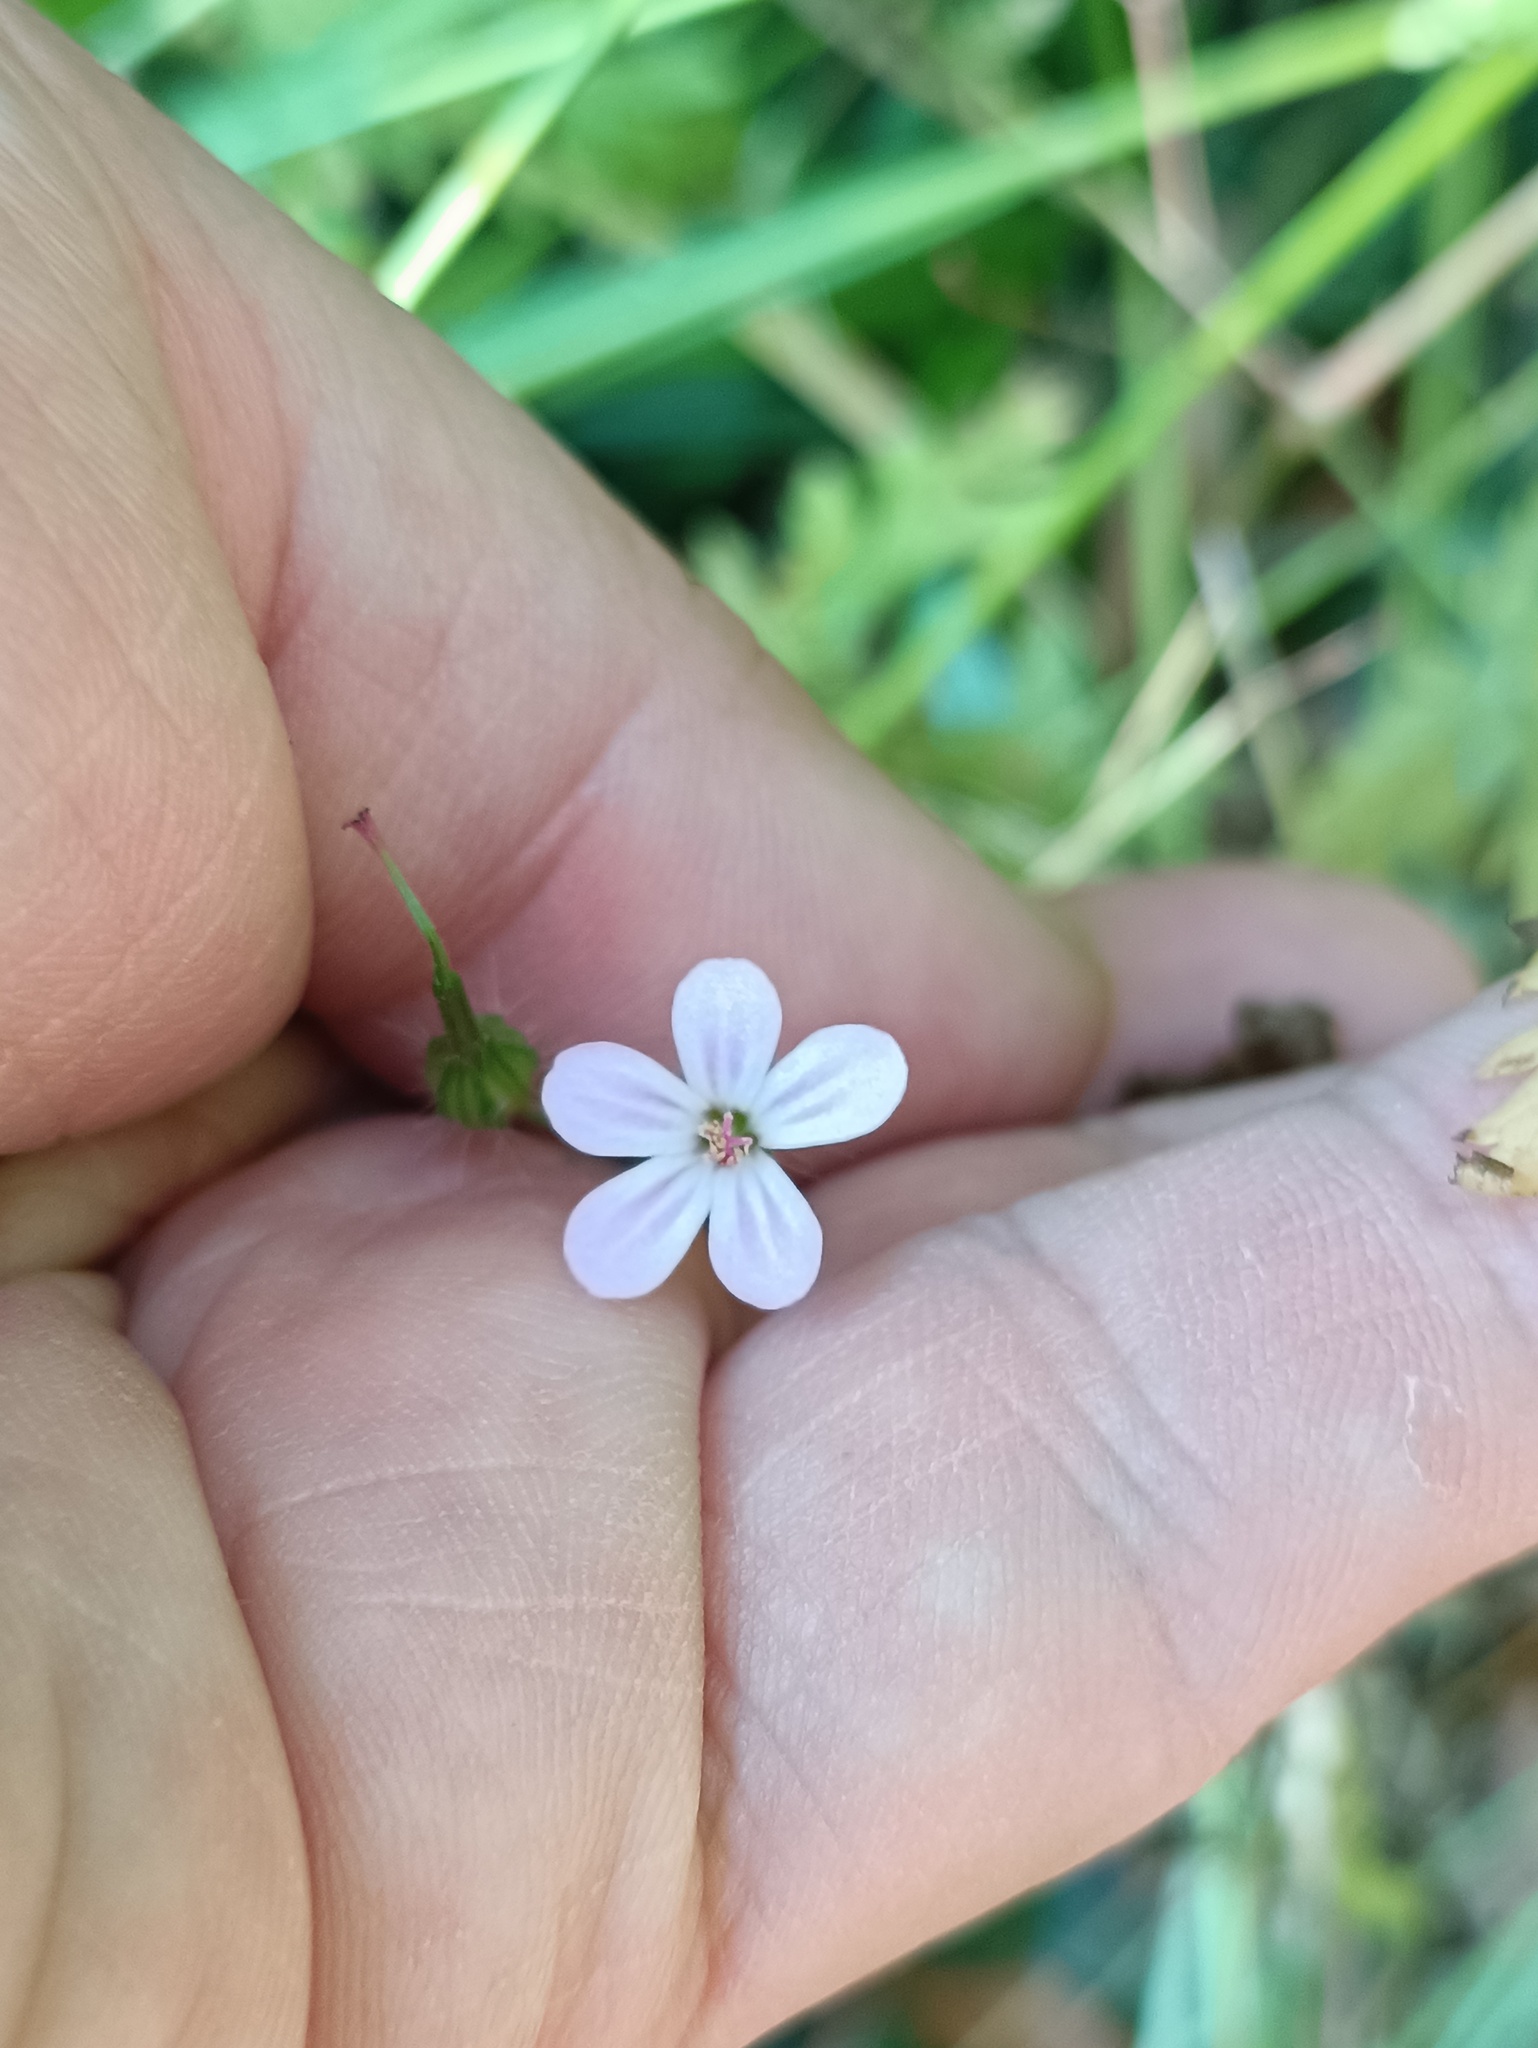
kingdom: Plantae
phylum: Tracheophyta
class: Magnoliopsida
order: Geraniales
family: Geraniaceae
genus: Geranium
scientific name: Geranium robertianum
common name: Herb-robert
